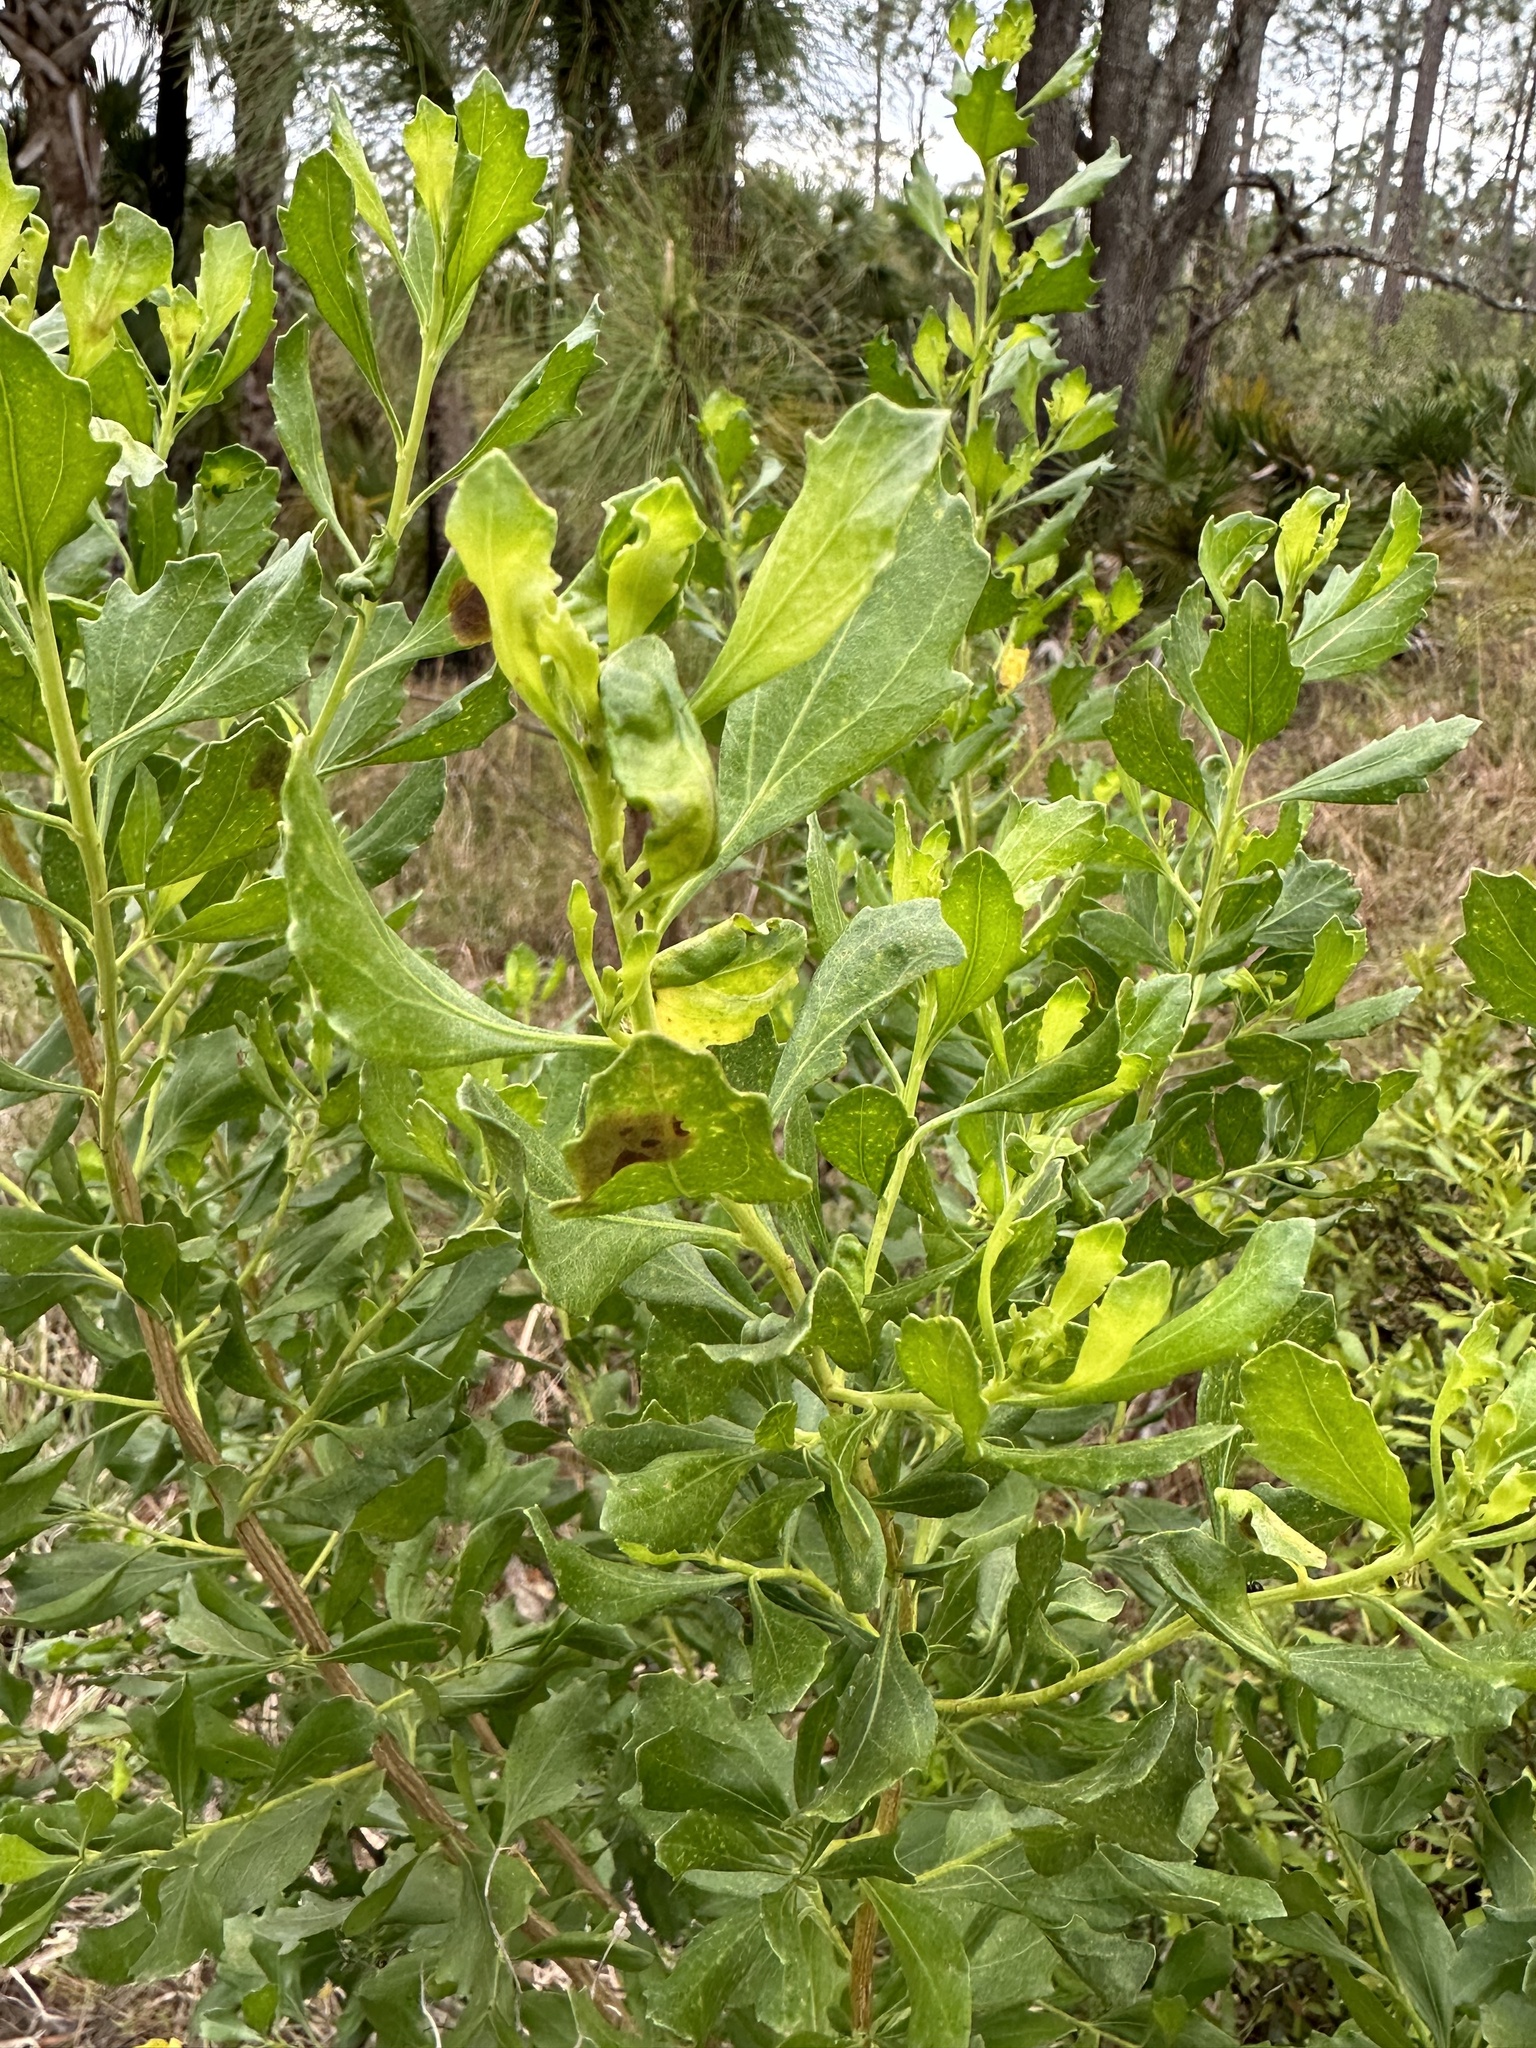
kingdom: Plantae
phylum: Tracheophyta
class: Magnoliopsida
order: Asterales
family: Asteraceae
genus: Baccharis
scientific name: Baccharis halimifolia
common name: Eastern baccharis
